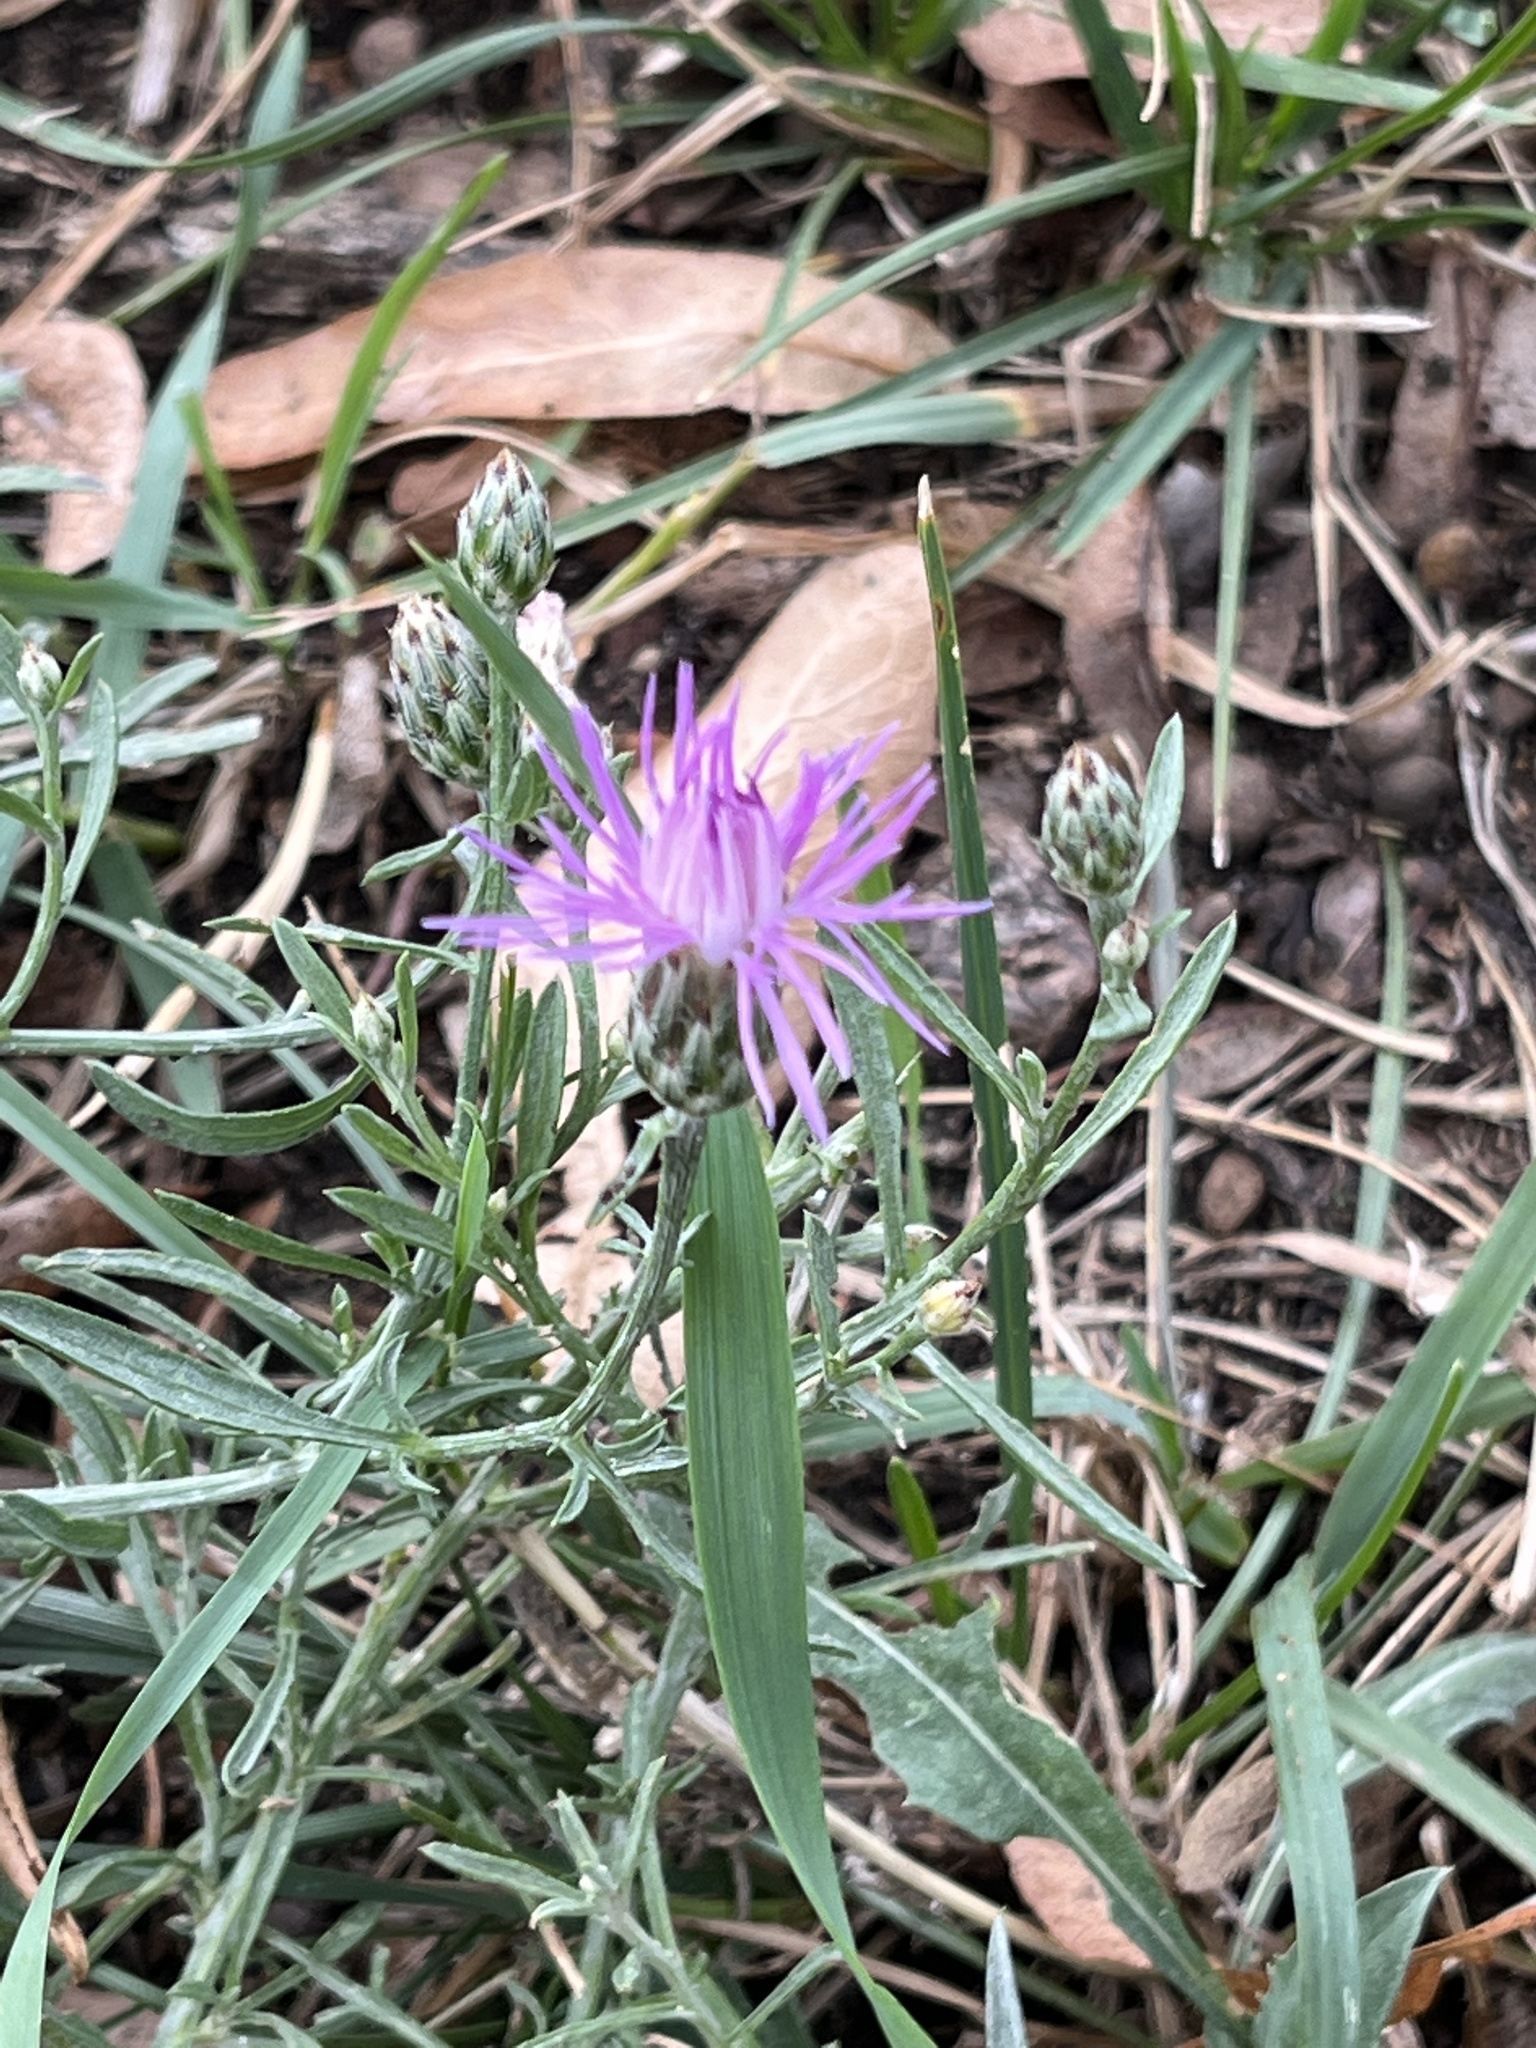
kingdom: Plantae
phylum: Tracheophyta
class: Magnoliopsida
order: Asterales
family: Asteraceae
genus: Centaurea
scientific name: Centaurea stoebe
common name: Spotted knapweed
